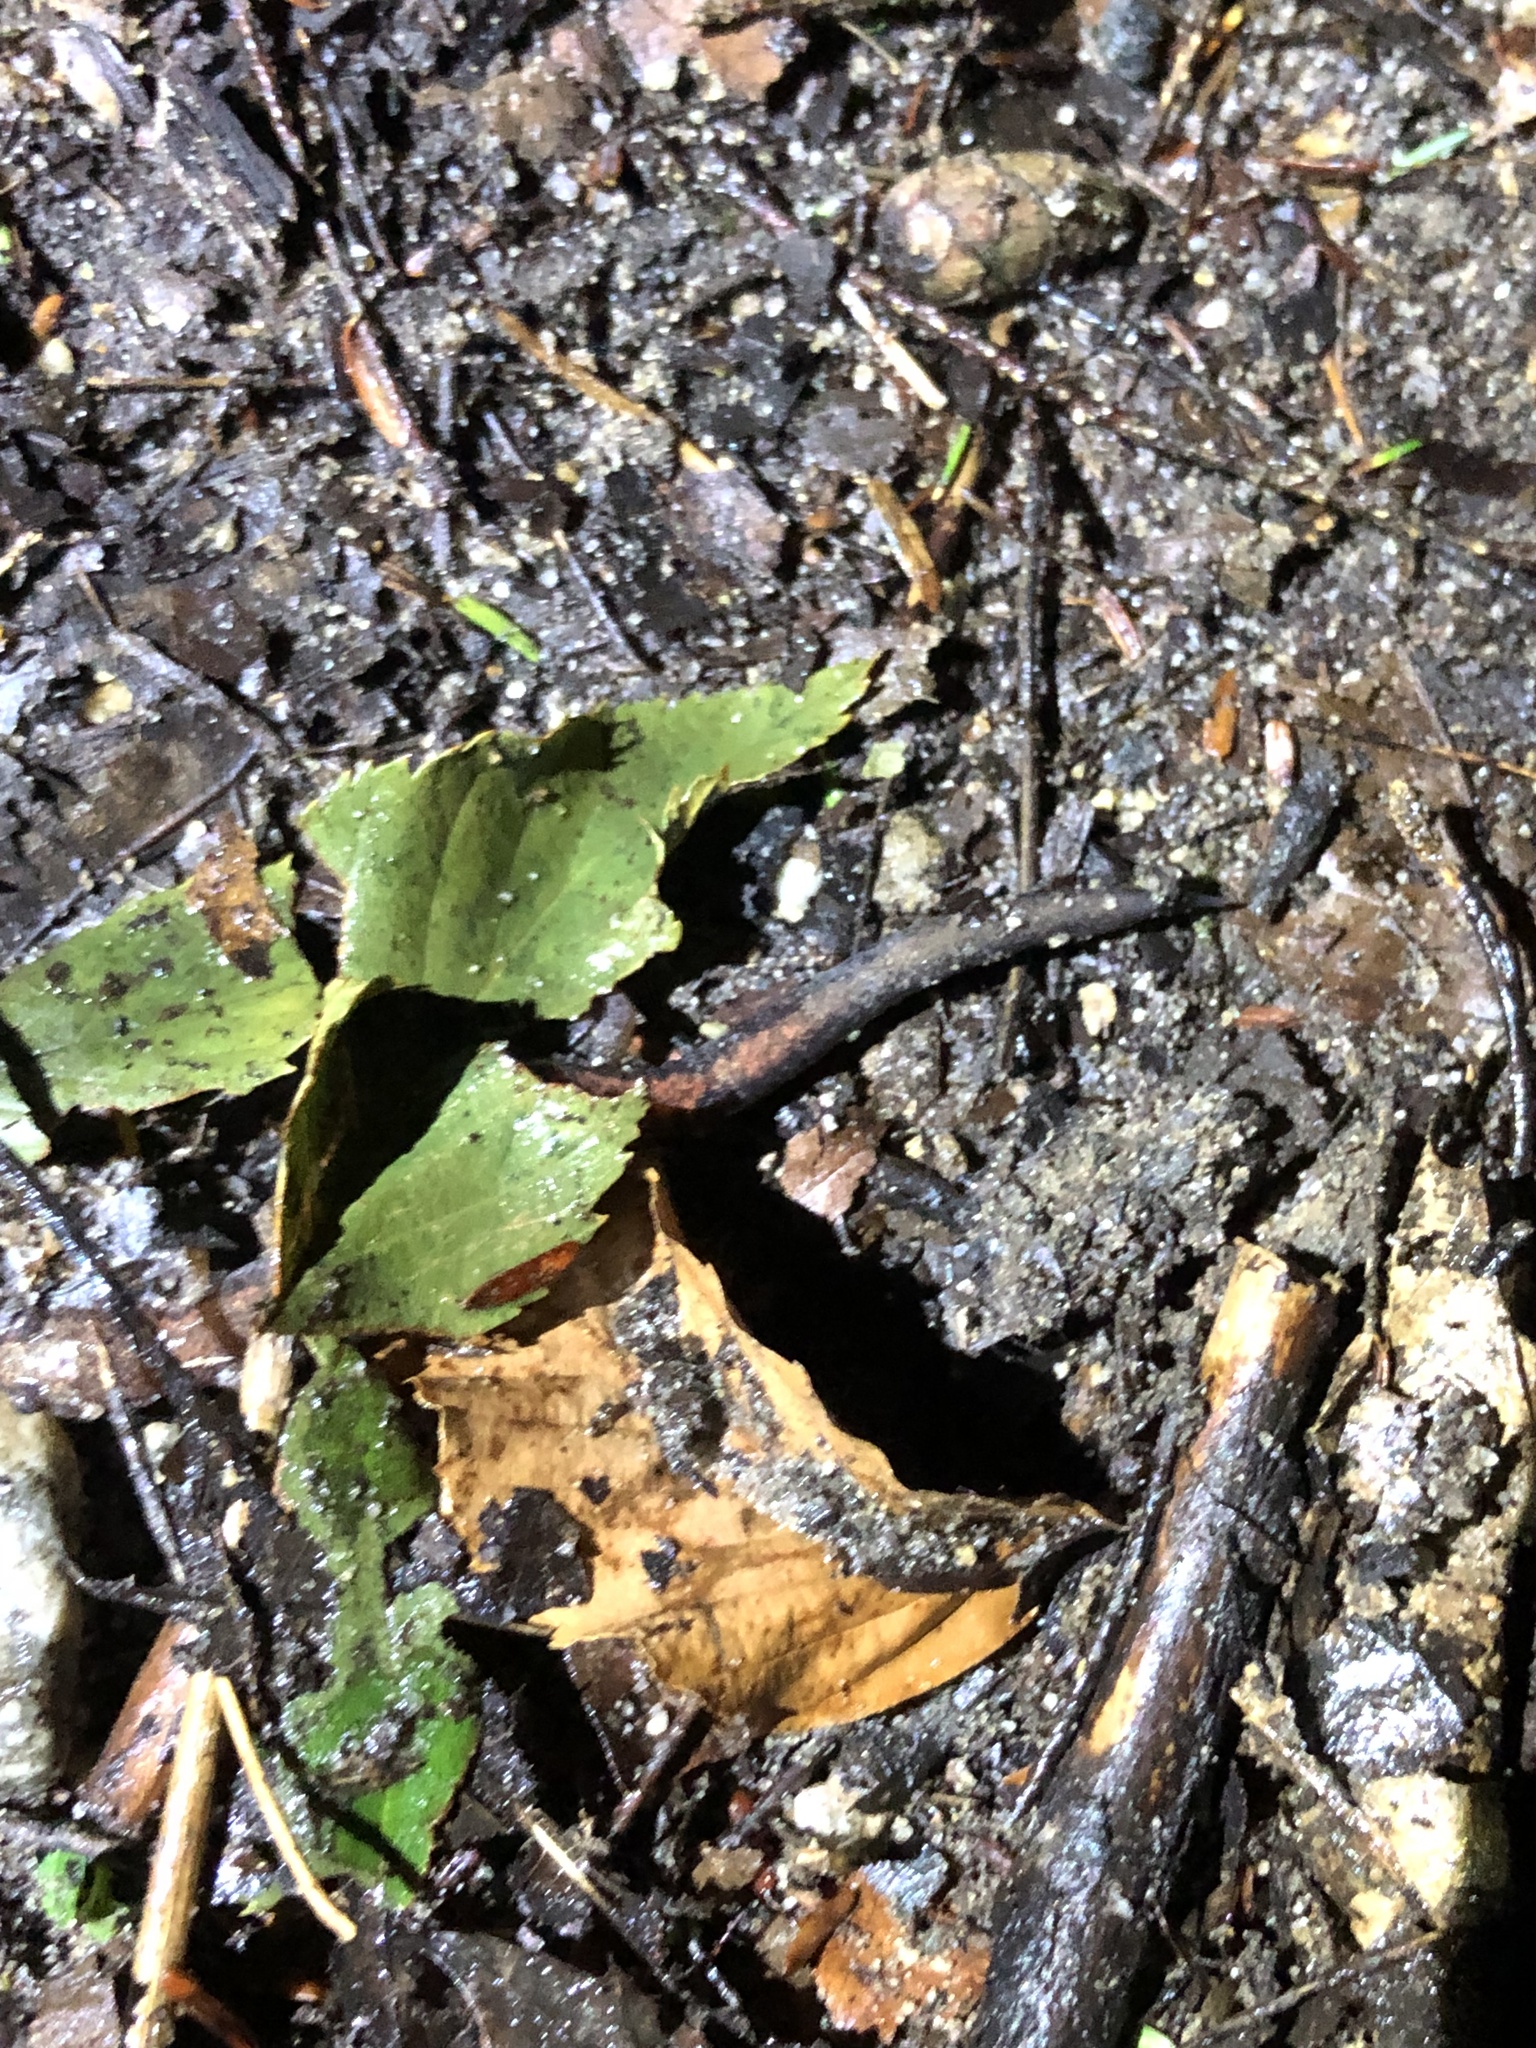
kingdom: Animalia
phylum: Chordata
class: Amphibia
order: Caudata
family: Plethodontidae
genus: Plethodon
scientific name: Plethodon cinereus
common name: Redback salamander
